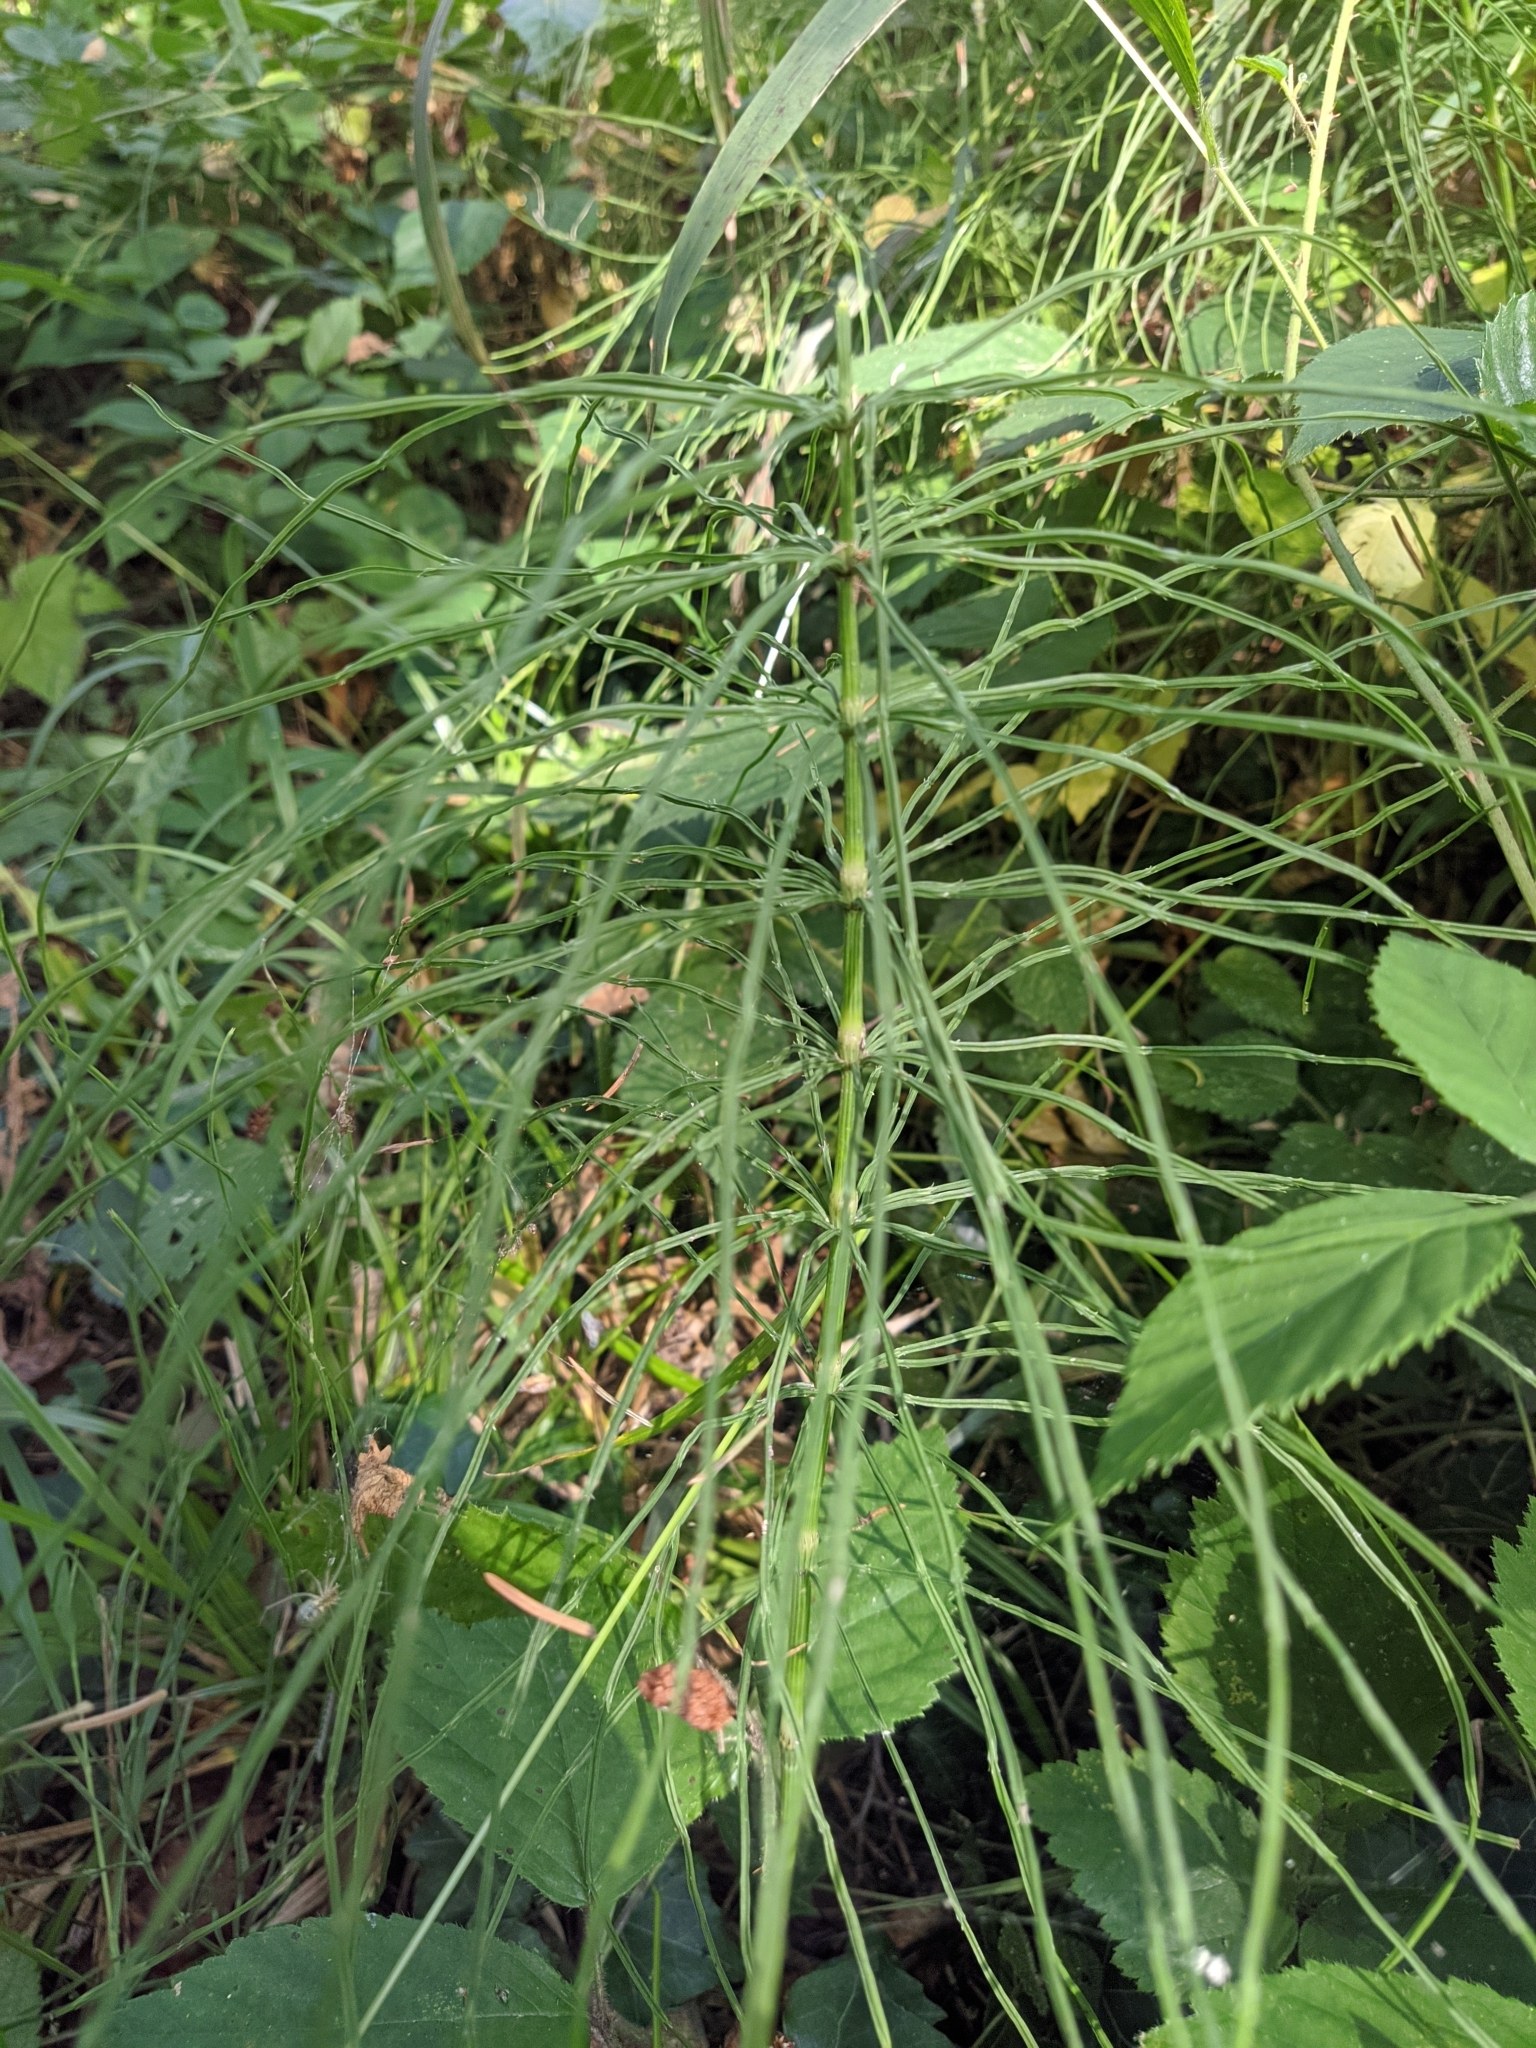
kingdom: Plantae
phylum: Tracheophyta
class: Polypodiopsida
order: Equisetales
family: Equisetaceae
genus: Equisetum
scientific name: Equisetum arvense
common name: Field horsetail
